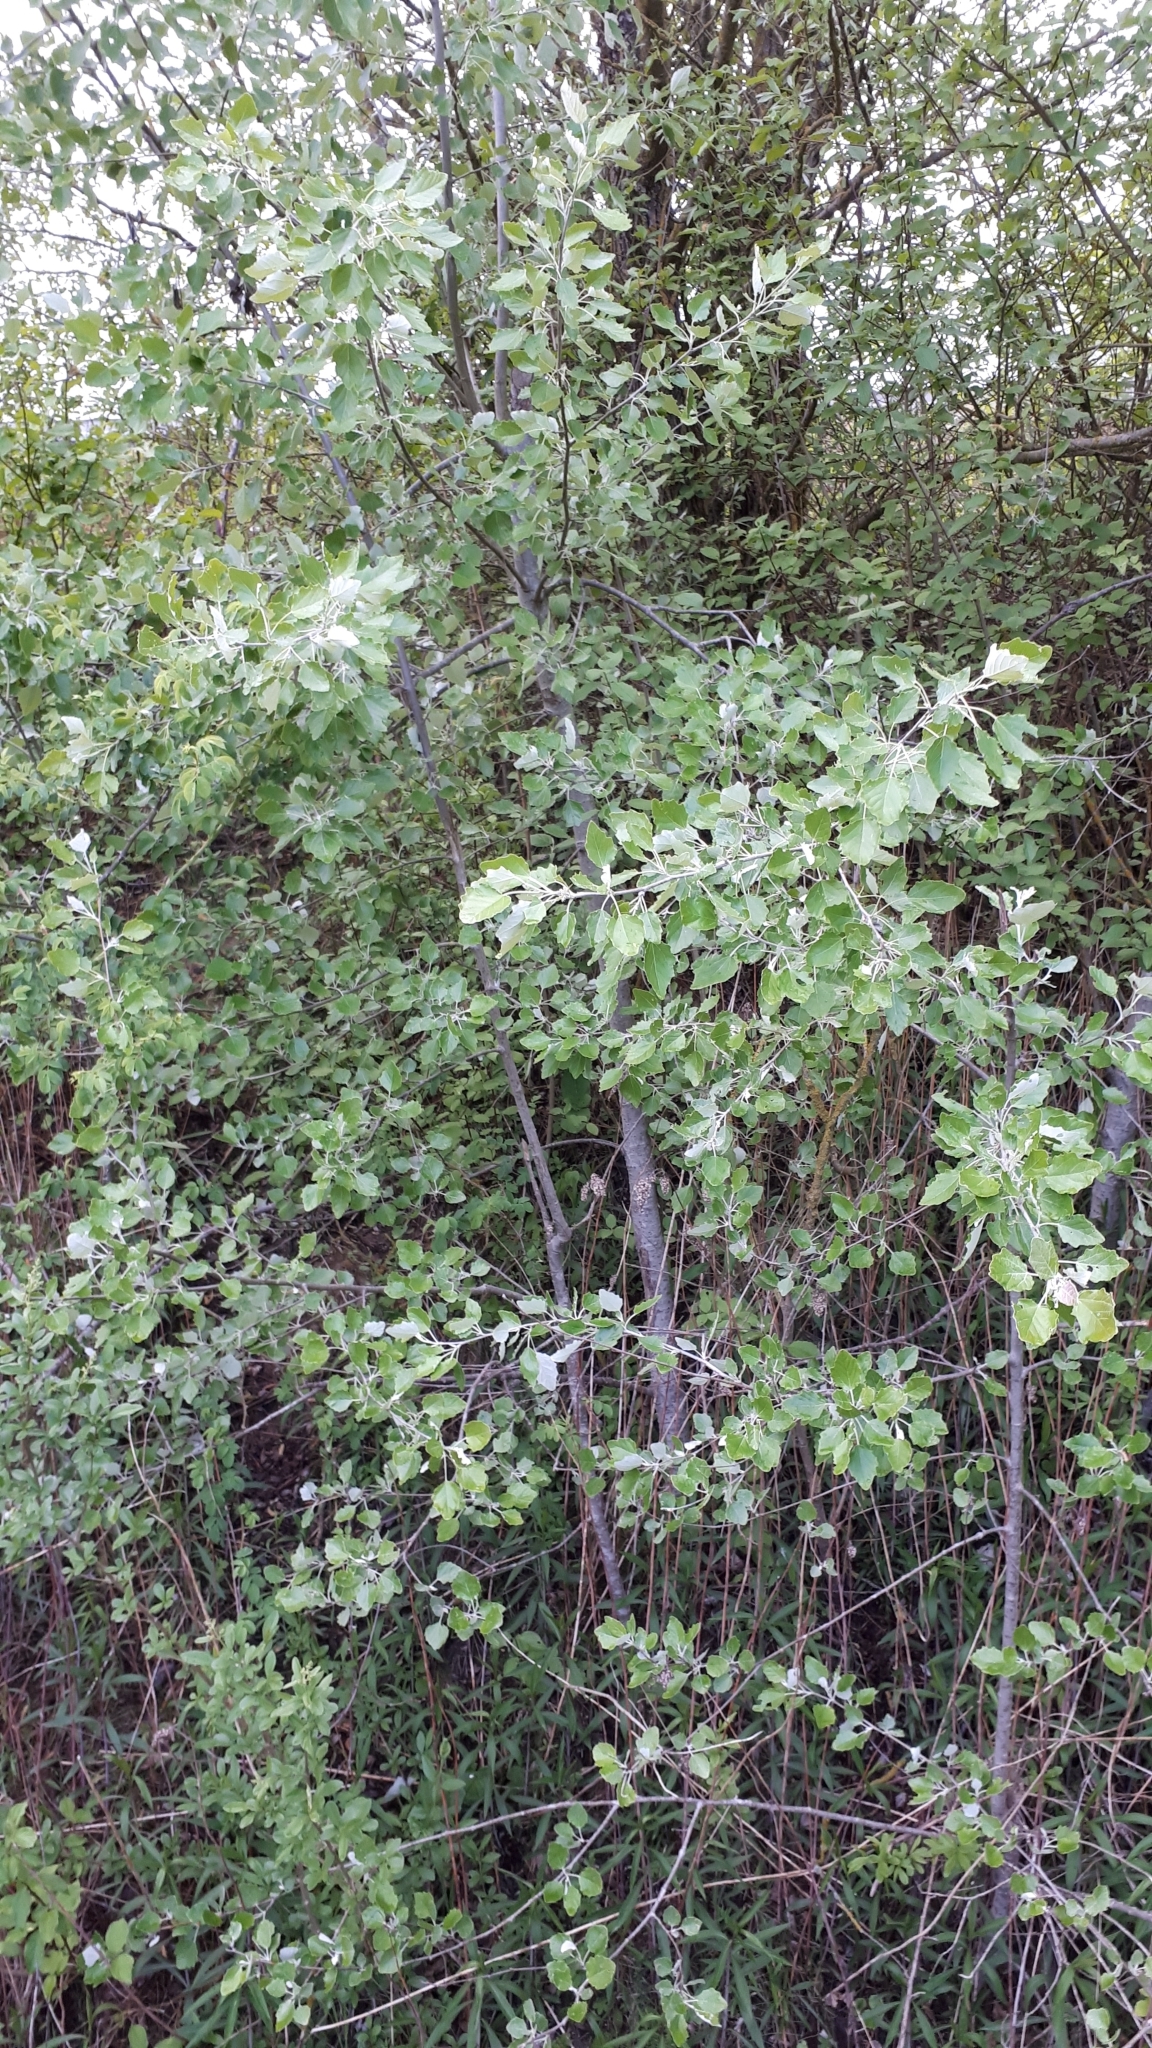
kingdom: Plantae
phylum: Tracheophyta
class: Magnoliopsida
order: Malpighiales
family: Salicaceae
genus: Populus
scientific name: Populus alba
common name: White poplar
